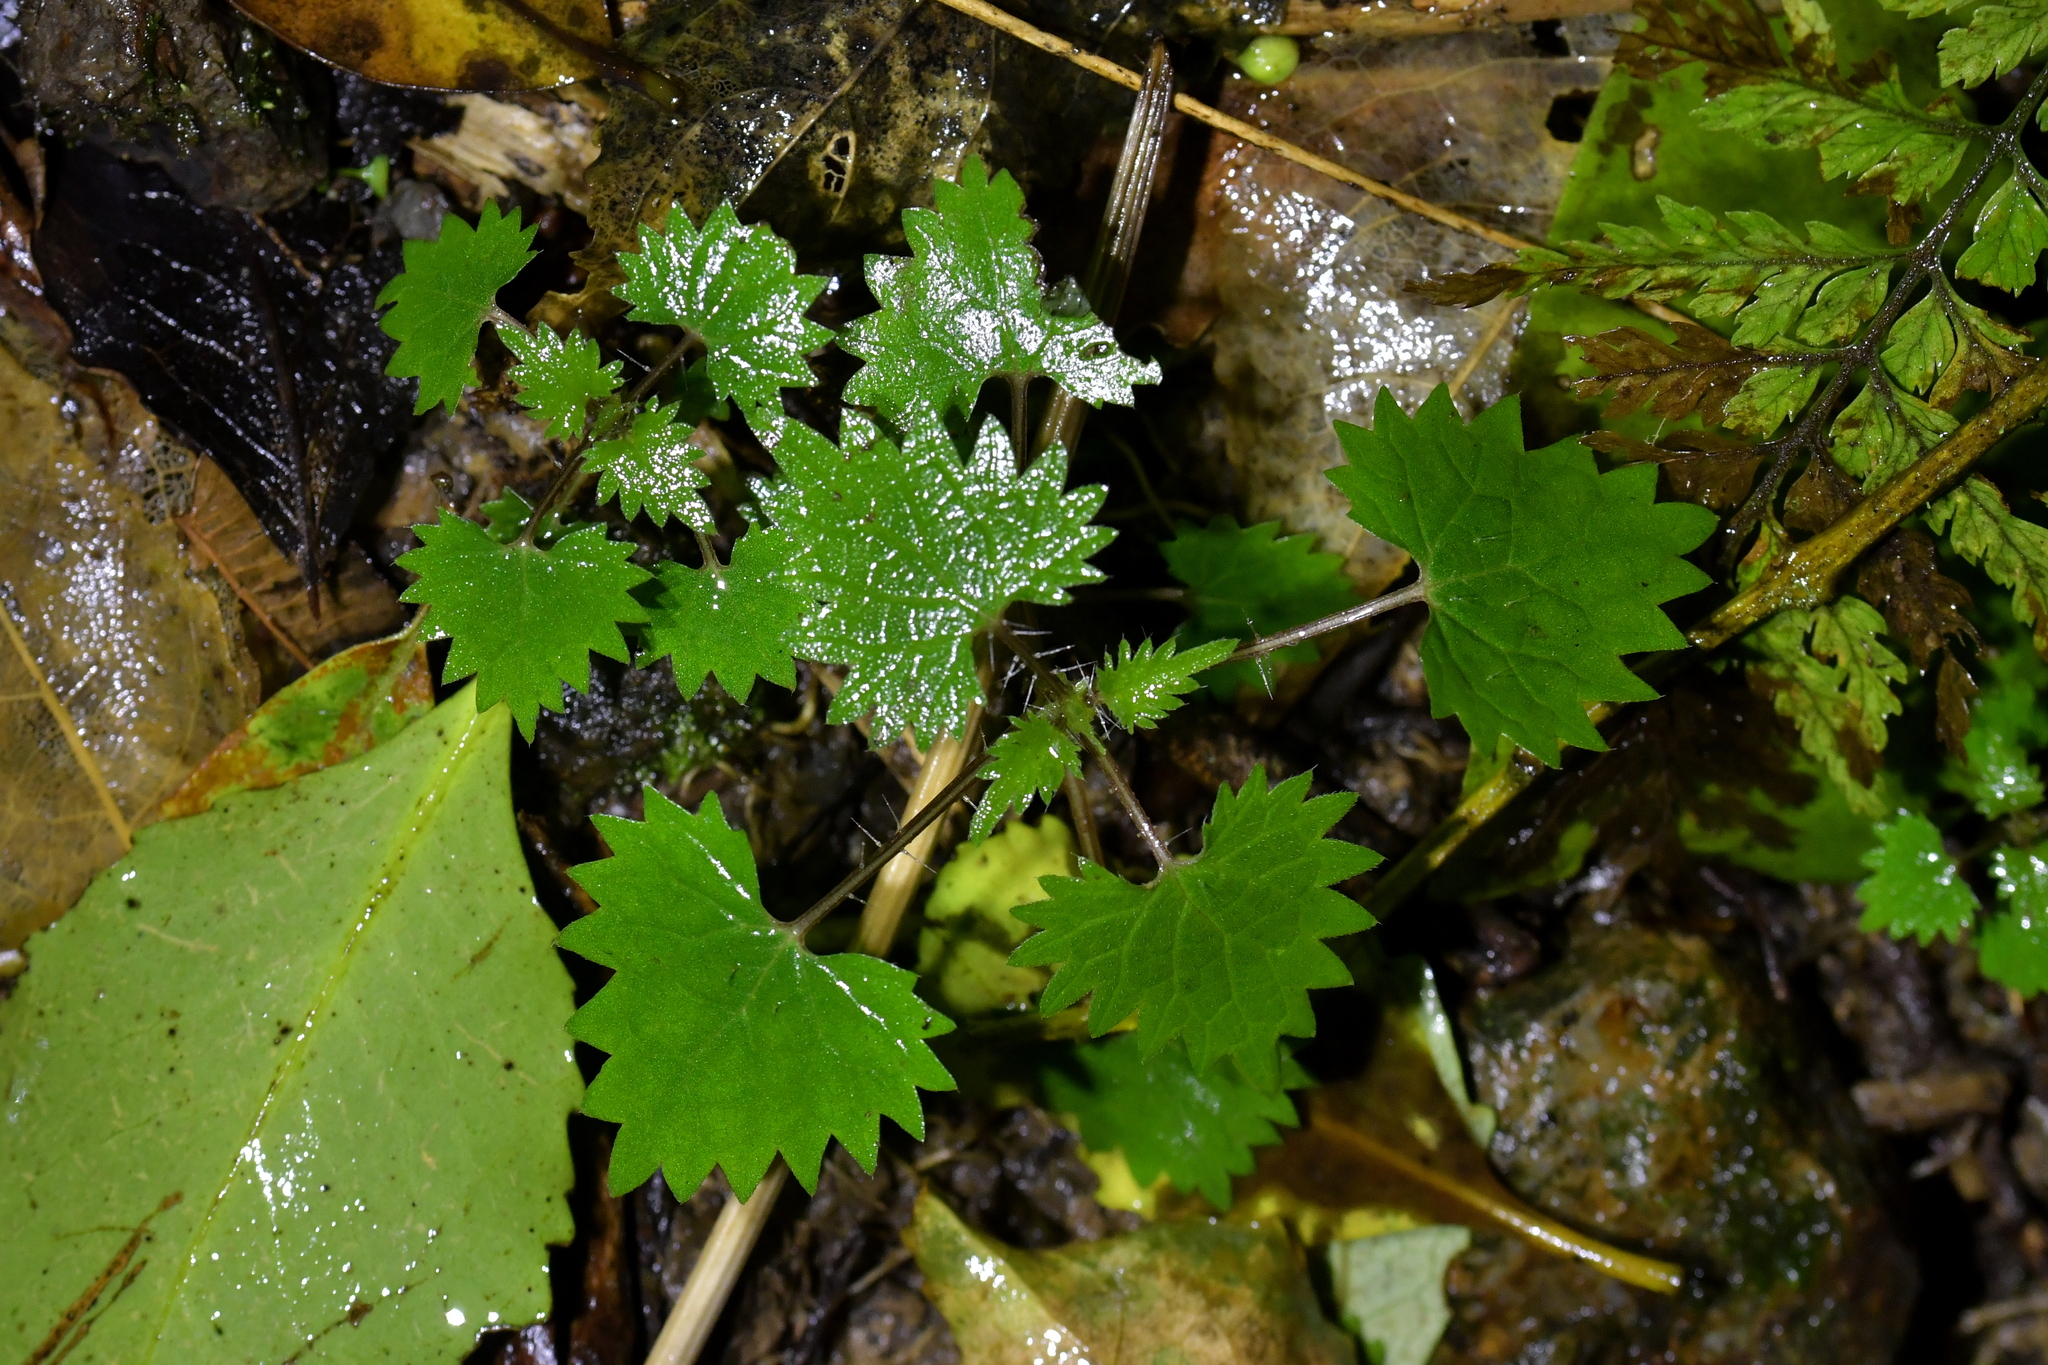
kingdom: Plantae
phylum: Tracheophyta
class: Magnoliopsida
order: Rosales
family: Urticaceae
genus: Urtica
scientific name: Urtica sykesii
